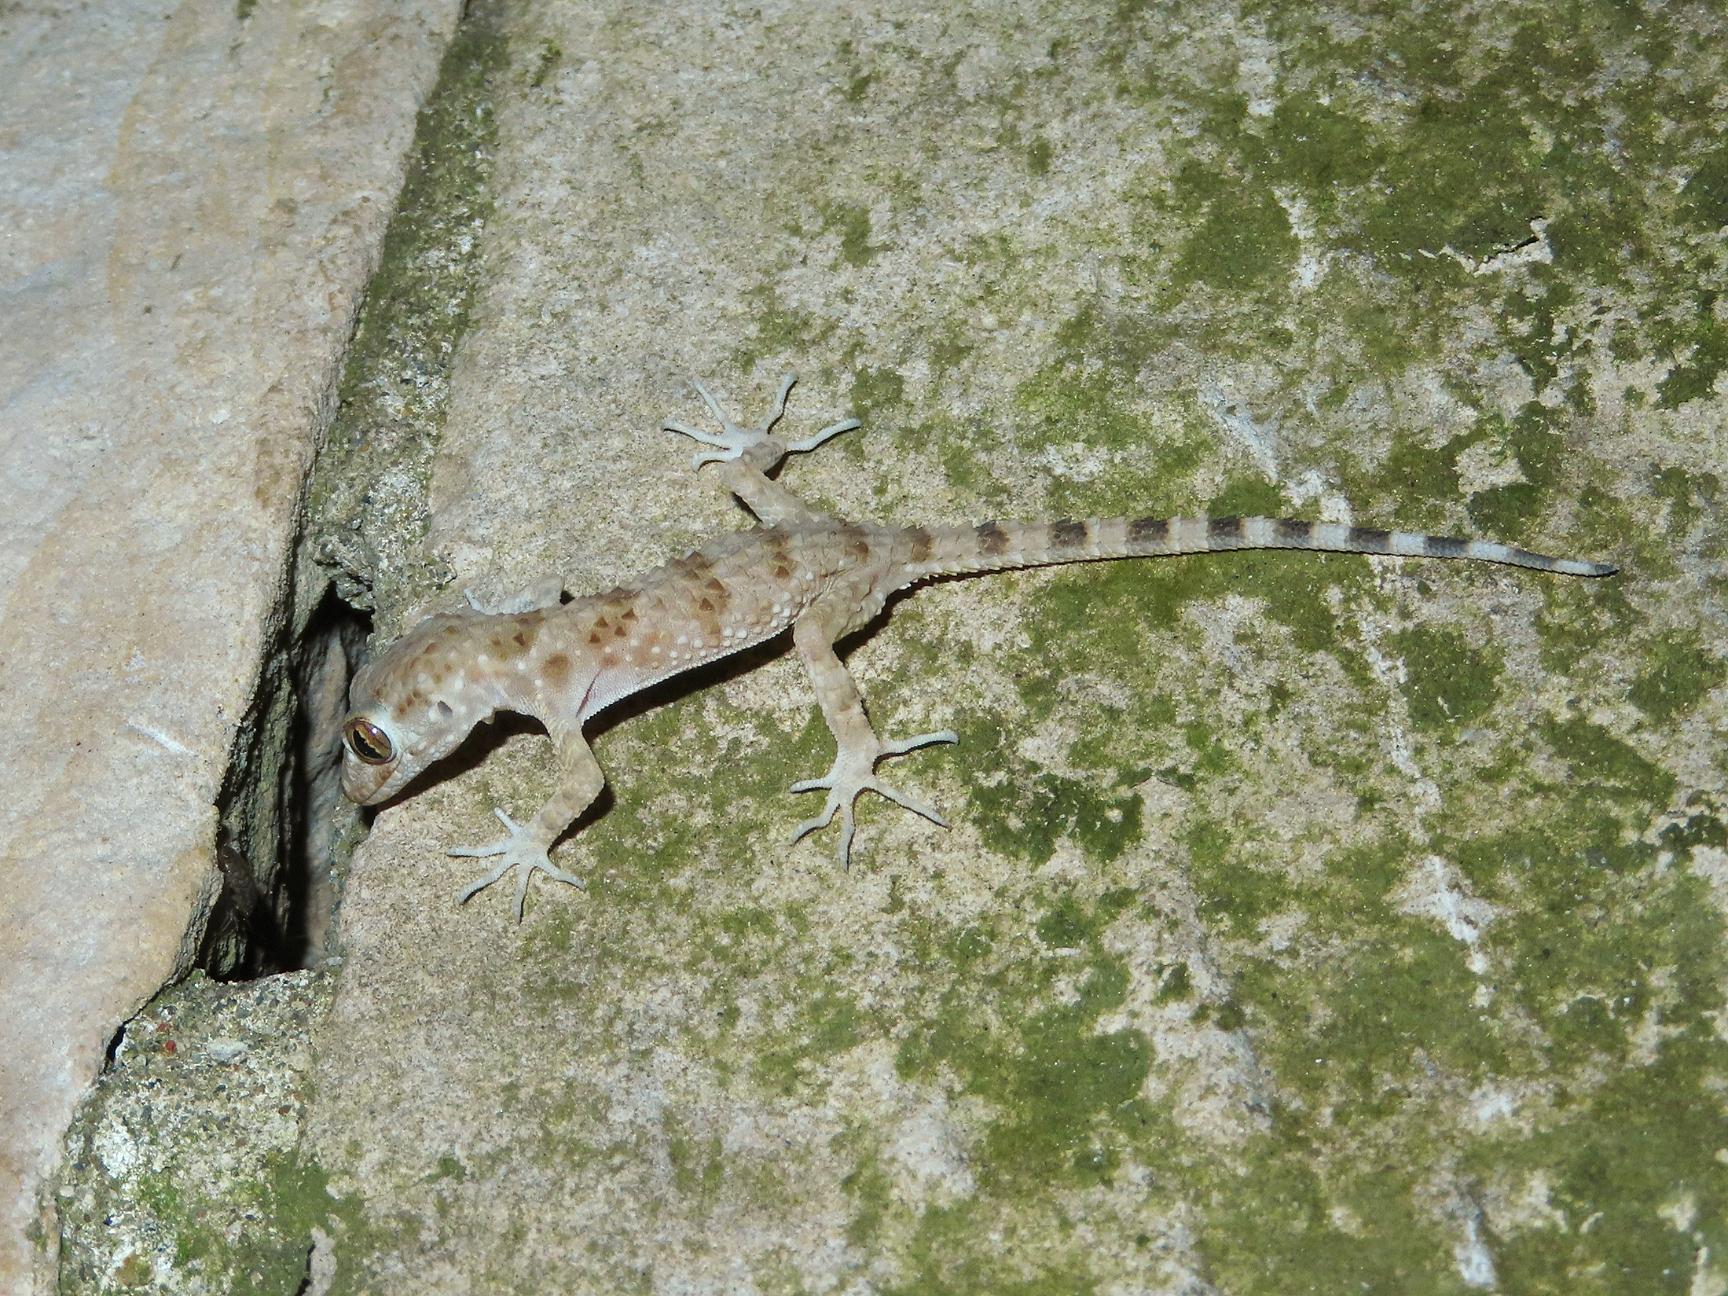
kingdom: Animalia
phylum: Chordata
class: Squamata
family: Gekkonidae
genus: Tenuidactylus
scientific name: Tenuidactylus caspius
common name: Caspian bent-toed gecko
